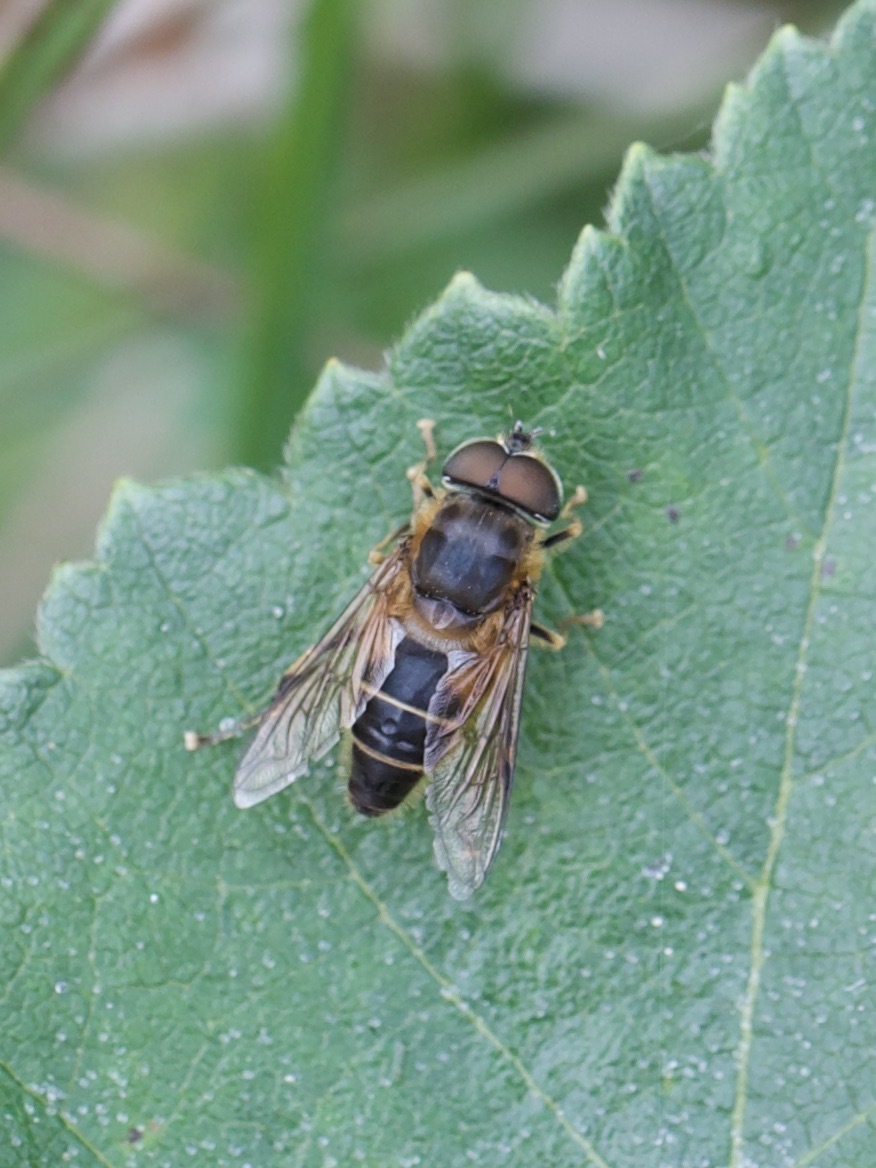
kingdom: Animalia
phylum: Arthropoda
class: Insecta
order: Diptera
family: Syrphidae
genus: Eristalis
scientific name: Eristalis pertinax
